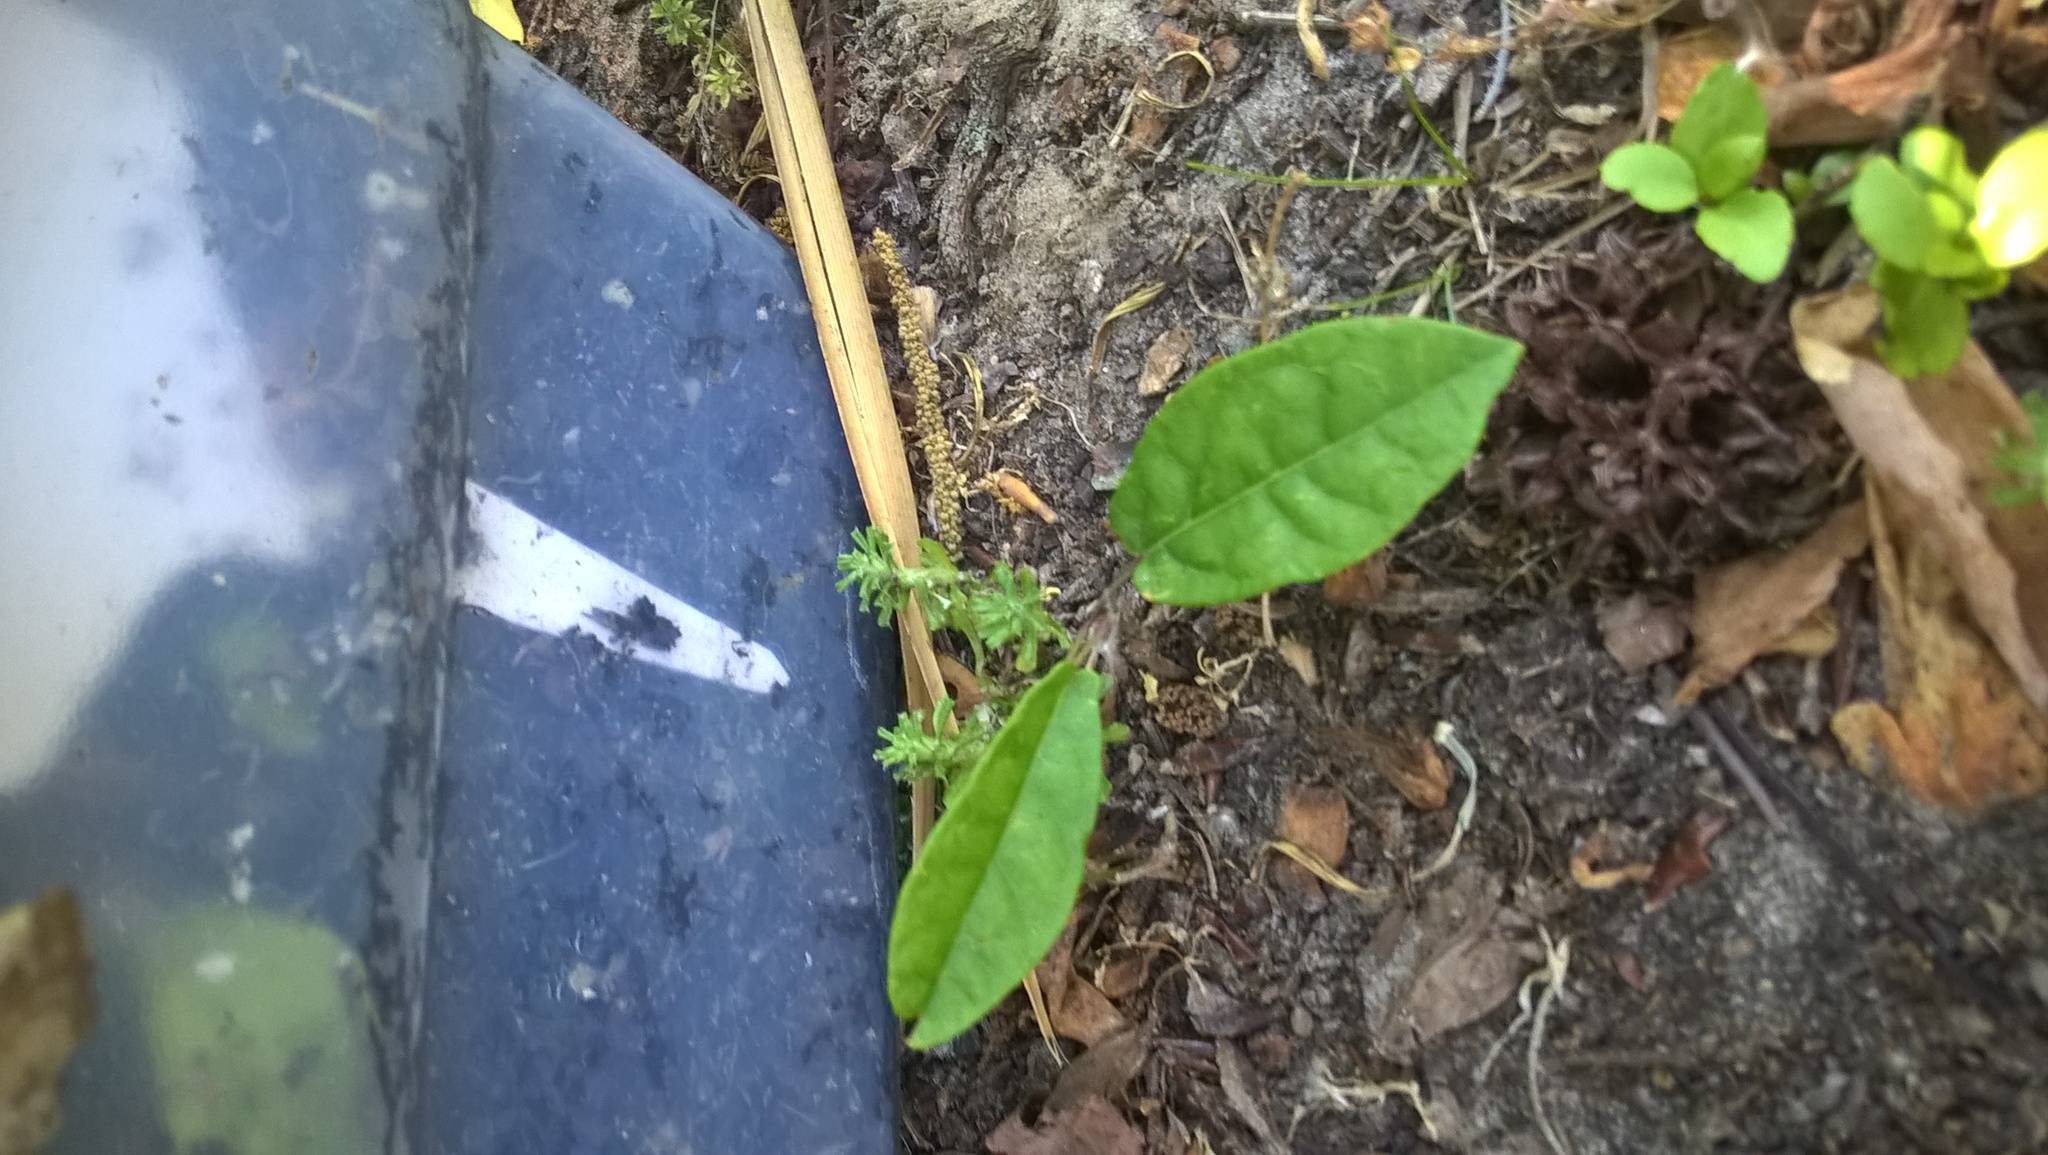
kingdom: Plantae
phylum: Tracheophyta
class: Magnoliopsida
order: Lamiales
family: Bignoniaceae
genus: Bignonia
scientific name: Bignonia capreolata
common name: Crossvine
